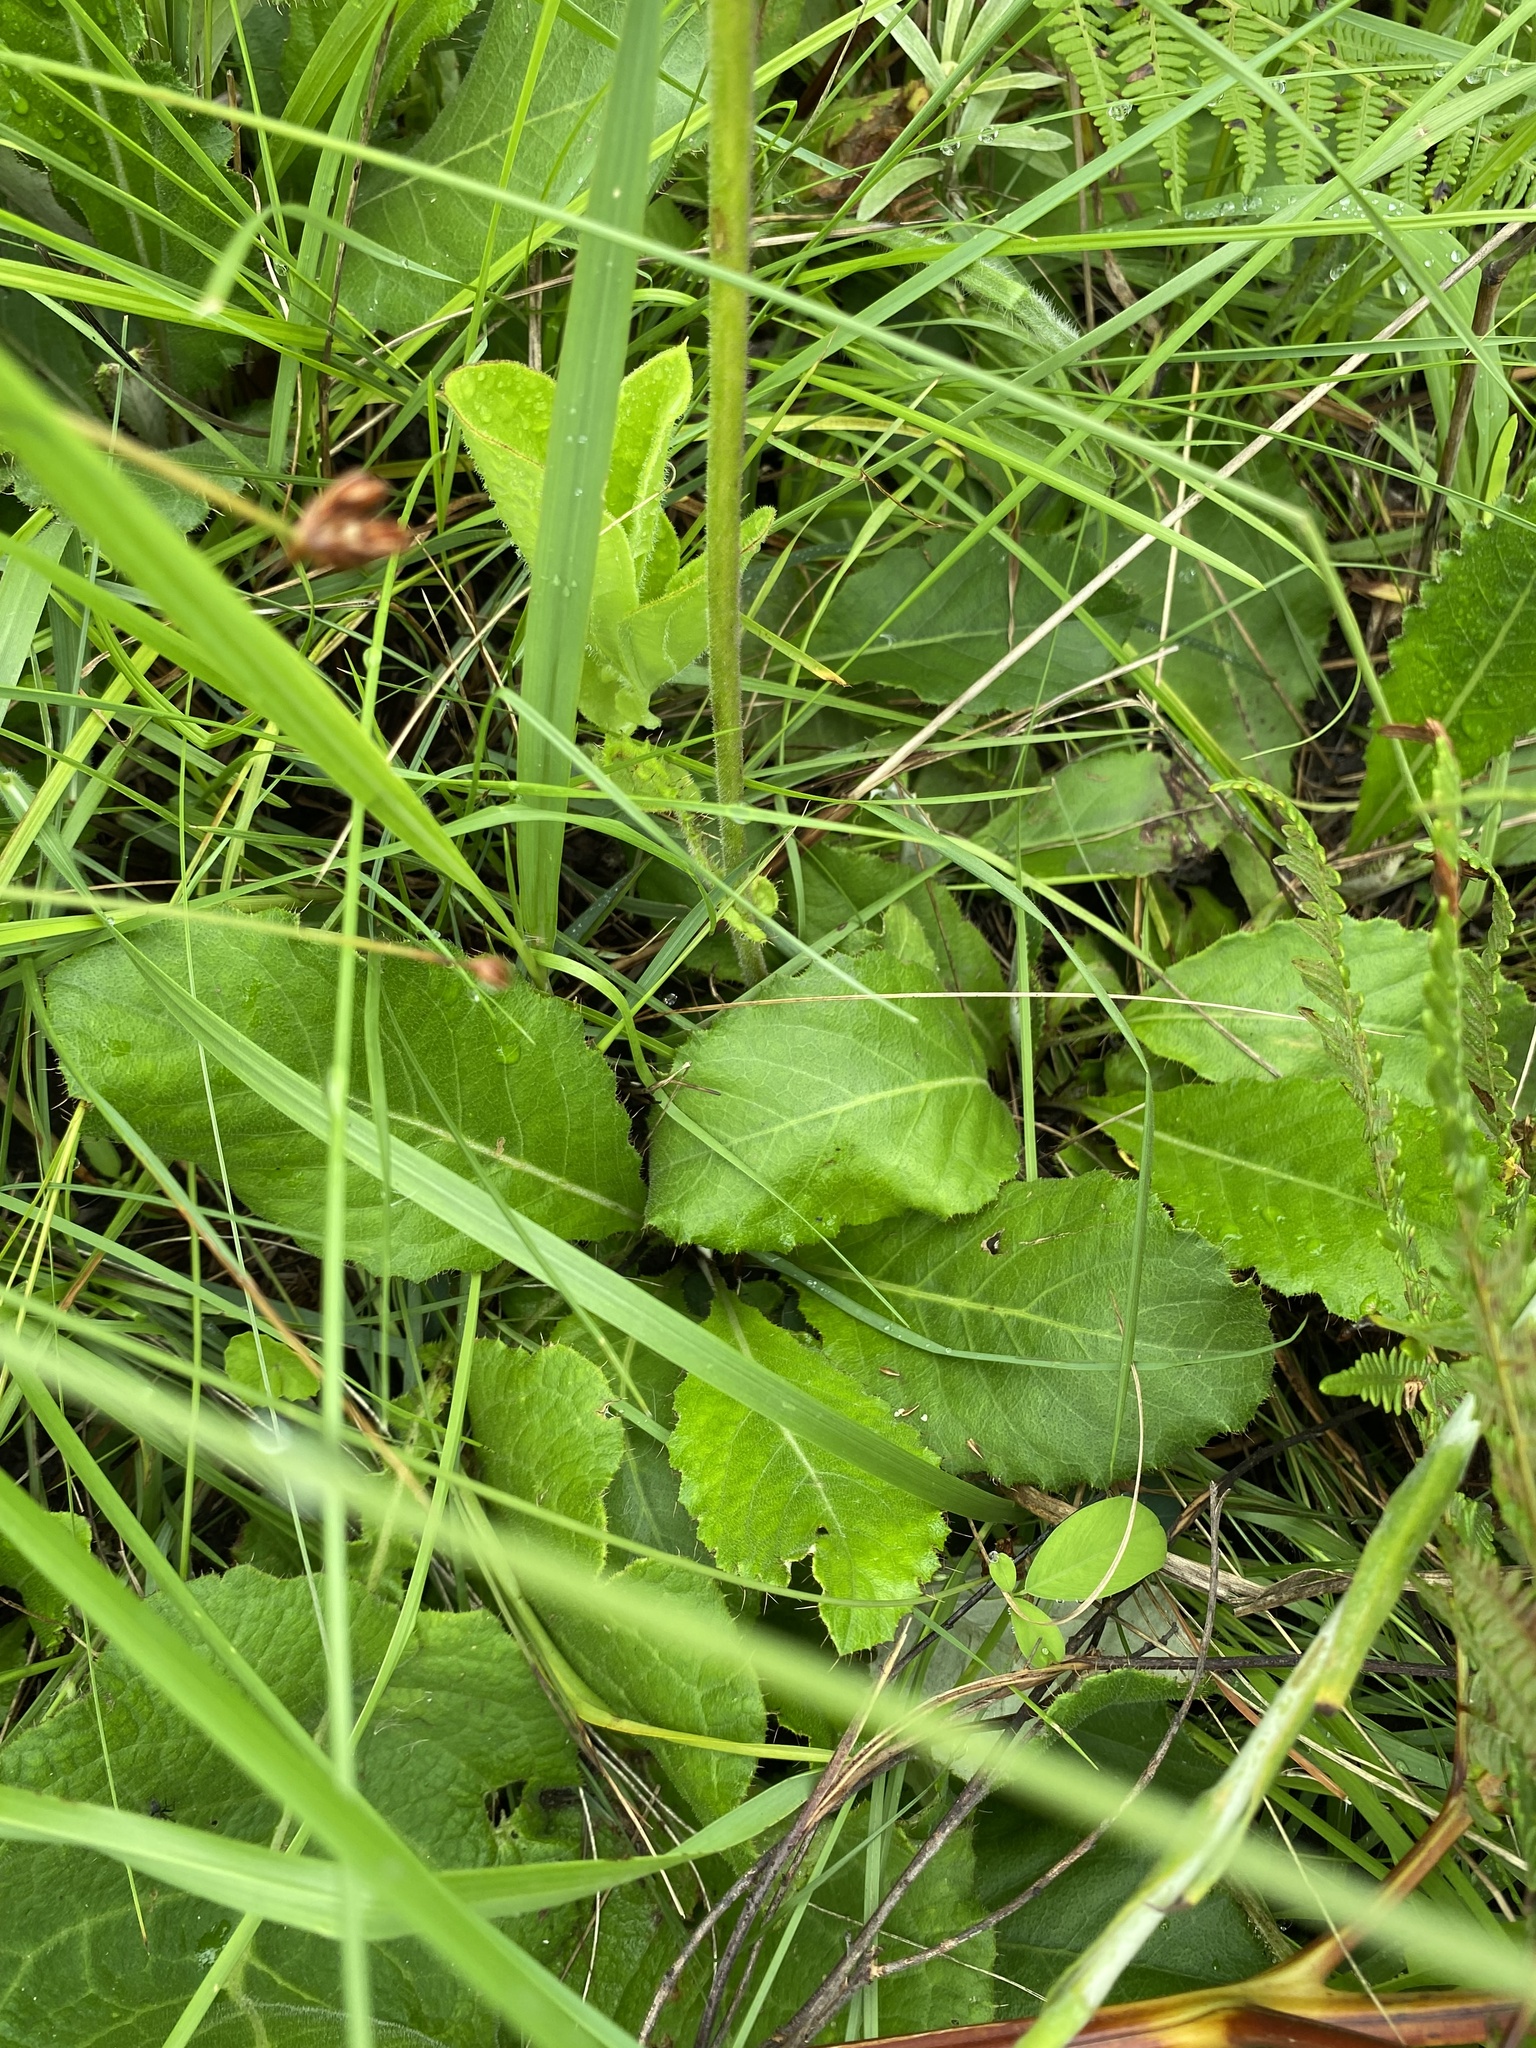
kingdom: Plantae
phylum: Tracheophyta
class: Magnoliopsida
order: Asterales
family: Asteraceae
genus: Berkheya
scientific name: Berkheya speciosa
